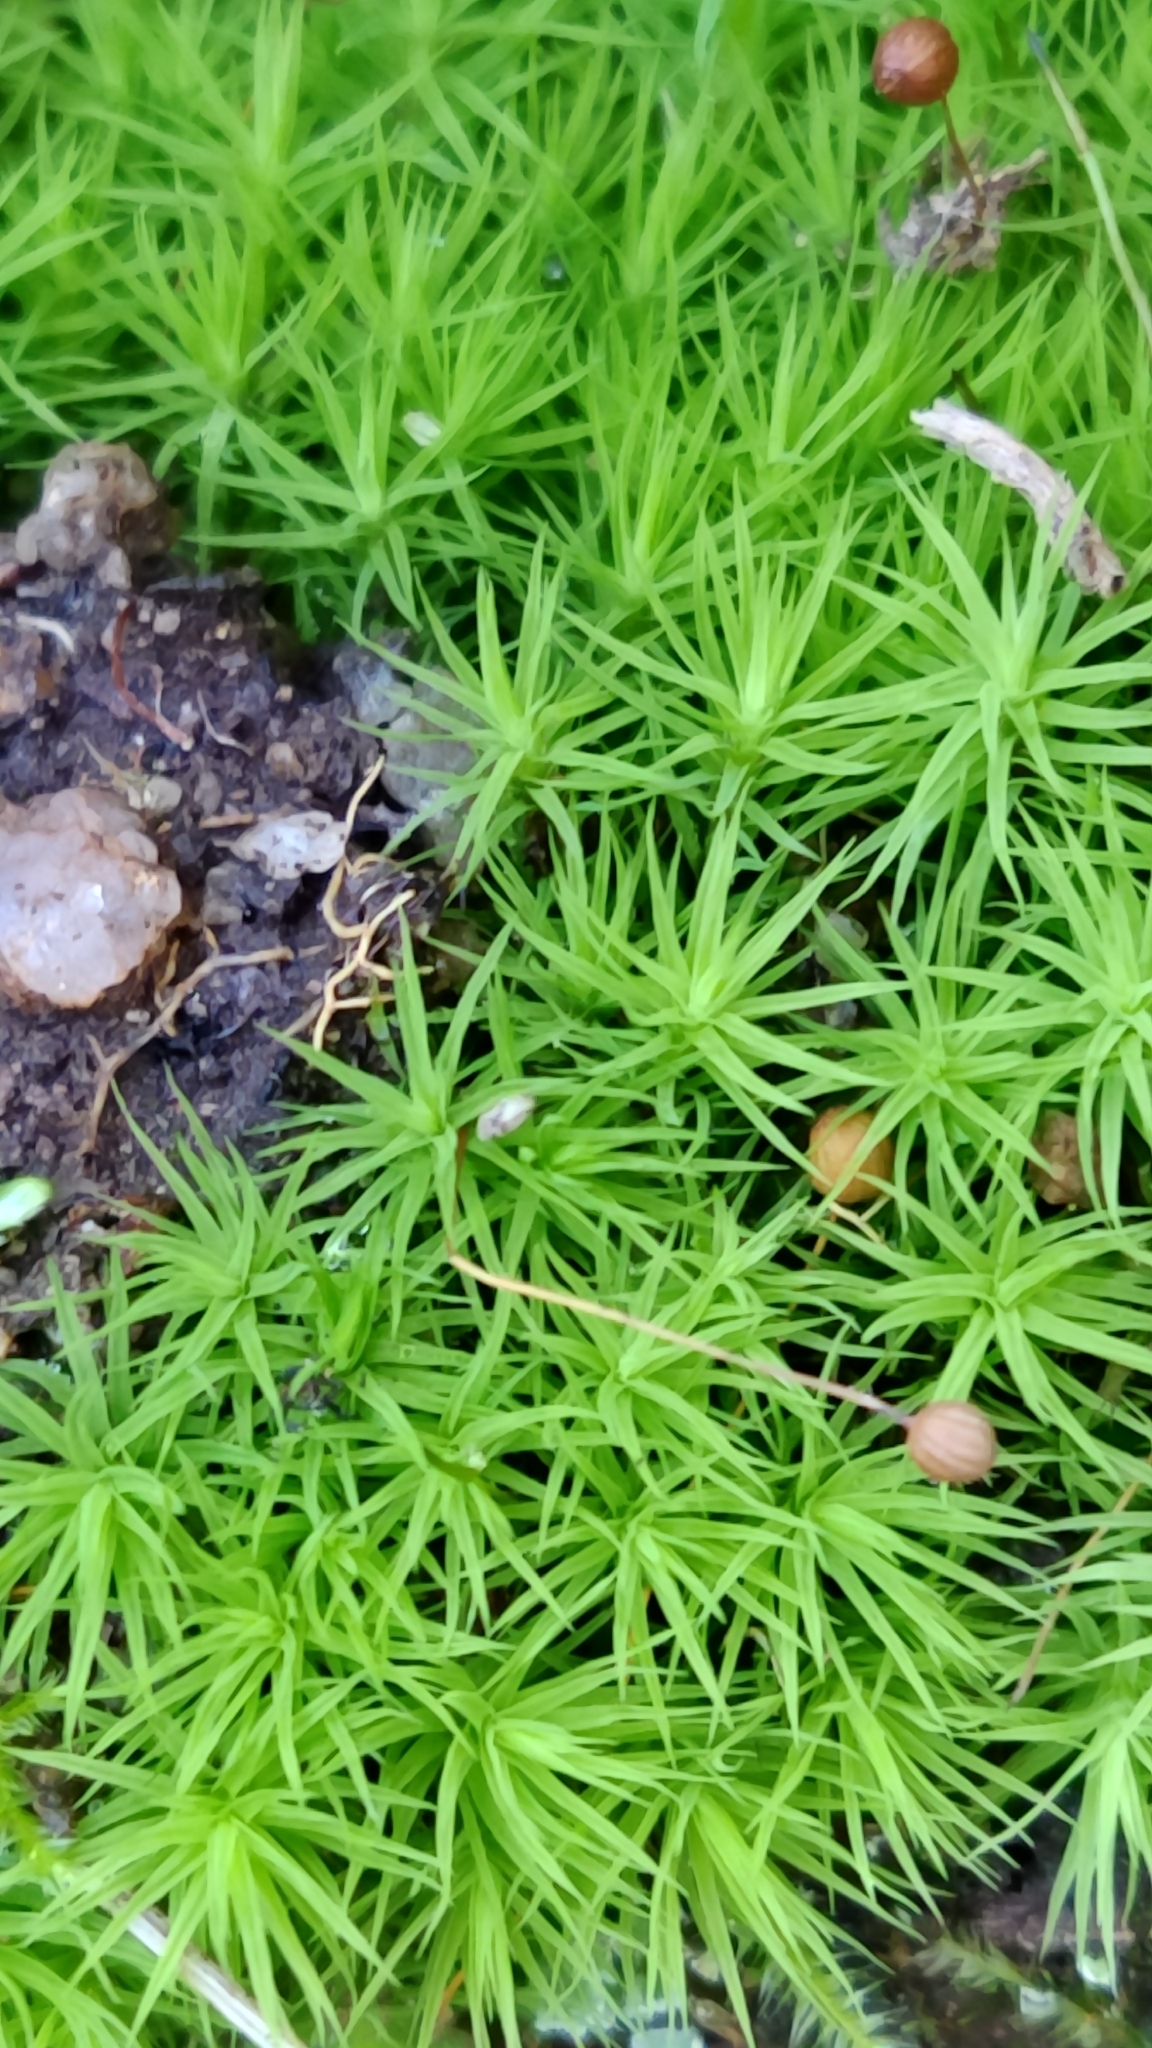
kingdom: Plantae
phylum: Bryophyta
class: Bryopsida
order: Bartramiales
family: Bartramiaceae
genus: Bartramia
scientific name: Bartramia ithyphylla
